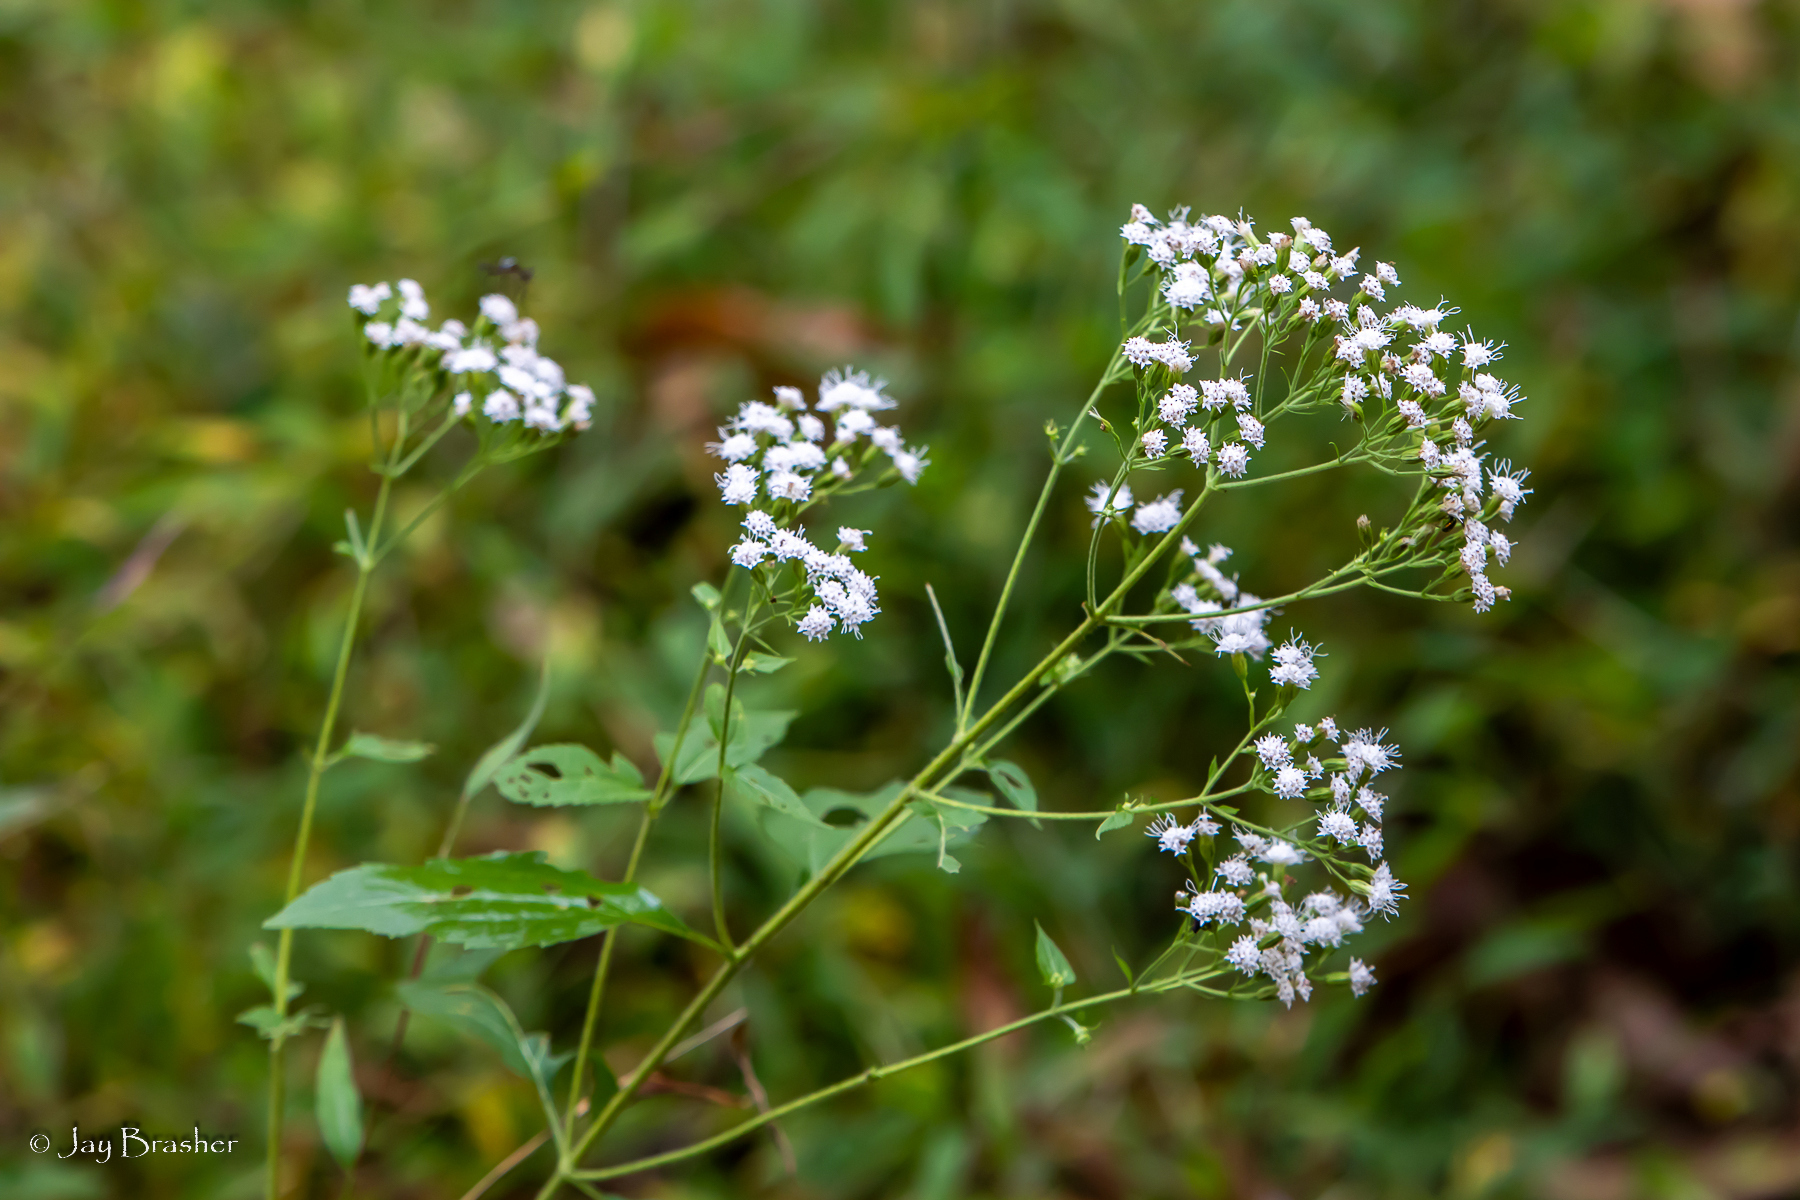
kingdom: Plantae
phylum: Tracheophyta
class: Magnoliopsida
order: Asterales
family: Asteraceae
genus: Ageratina
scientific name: Ageratina altissima
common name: White snakeroot
